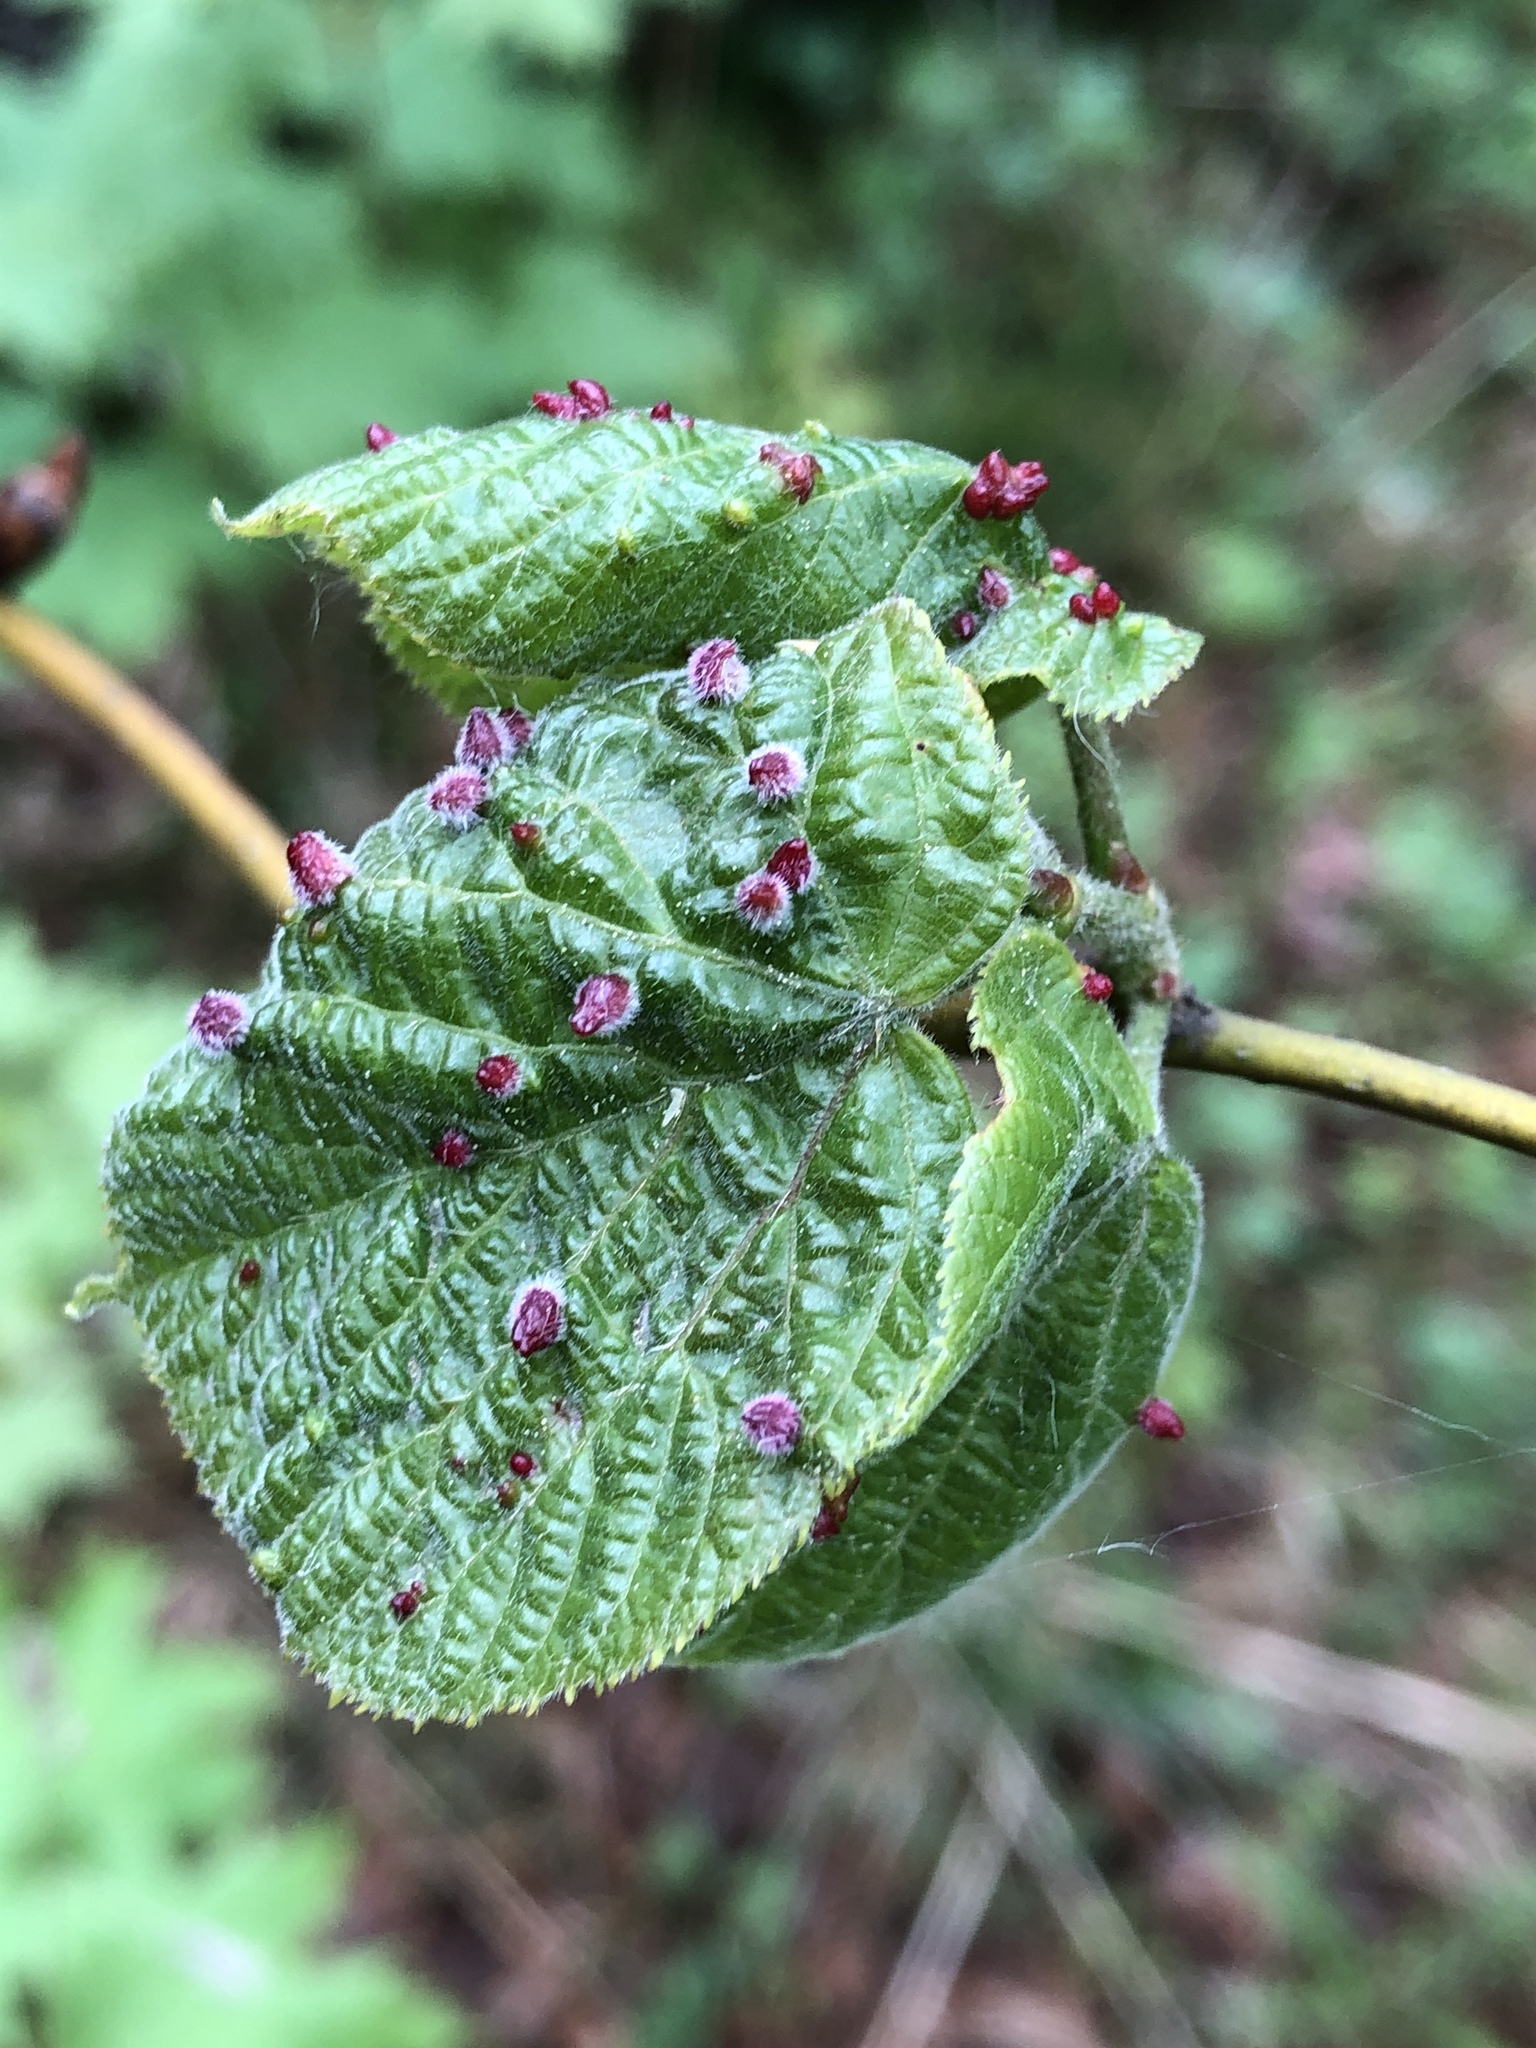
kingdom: Animalia
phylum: Arthropoda
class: Arachnida
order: Trombidiformes
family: Eriophyidae
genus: Eriophyes
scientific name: Eriophyes tiliae
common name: Red nail gall mite
